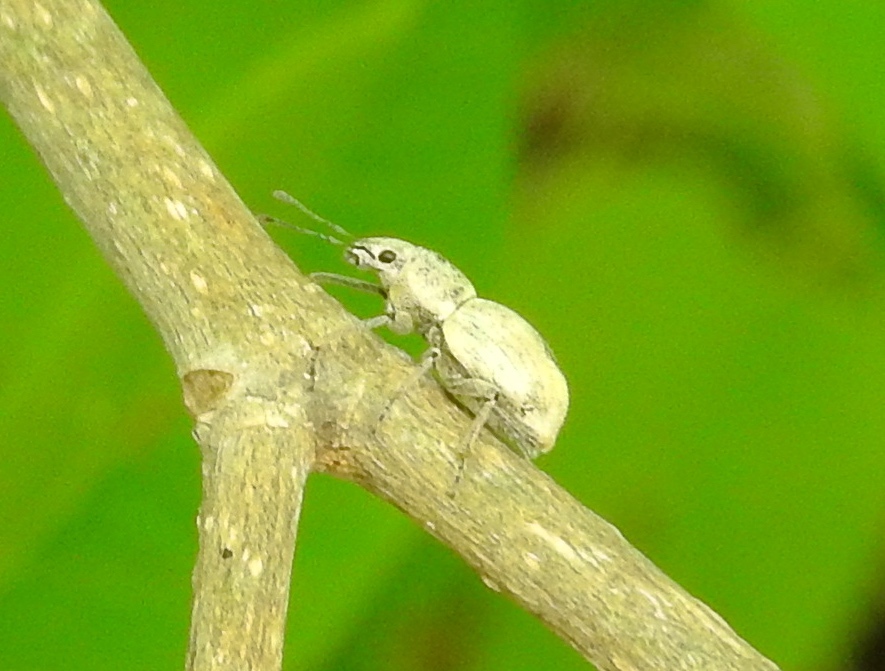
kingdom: Animalia
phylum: Arthropoda
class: Insecta
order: Coleoptera
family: Curculionidae
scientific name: Curculionidae
